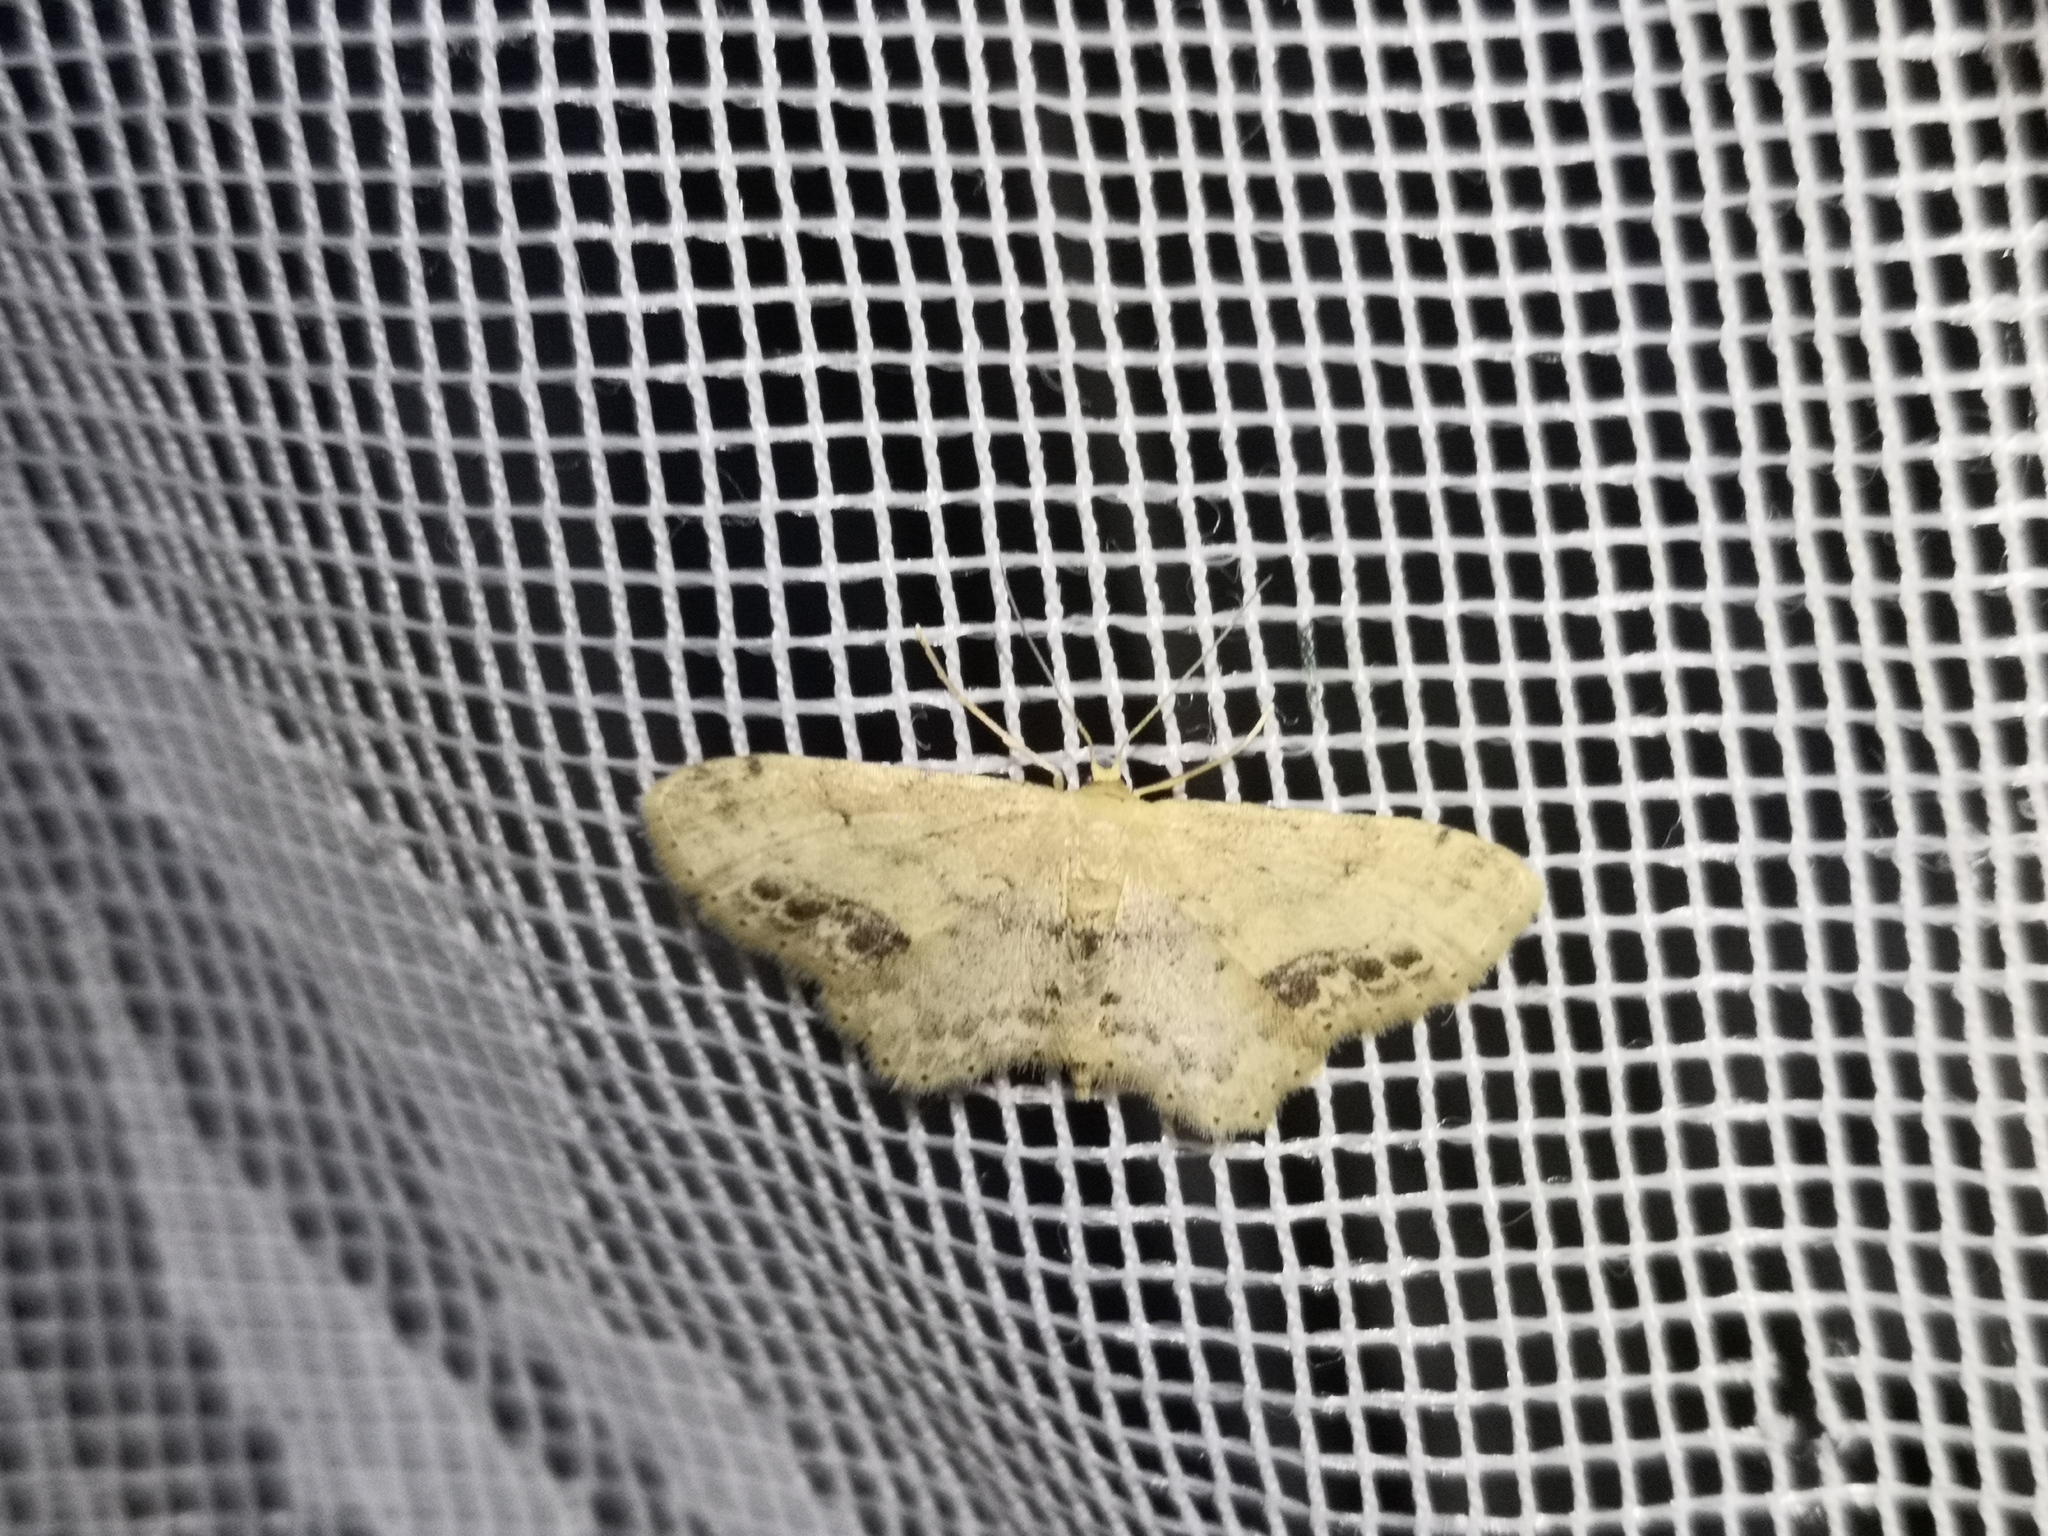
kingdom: Animalia
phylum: Arthropoda
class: Insecta
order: Lepidoptera
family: Geometridae
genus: Idaea
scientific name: Idaea dimidiata
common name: Single-dotted wave
